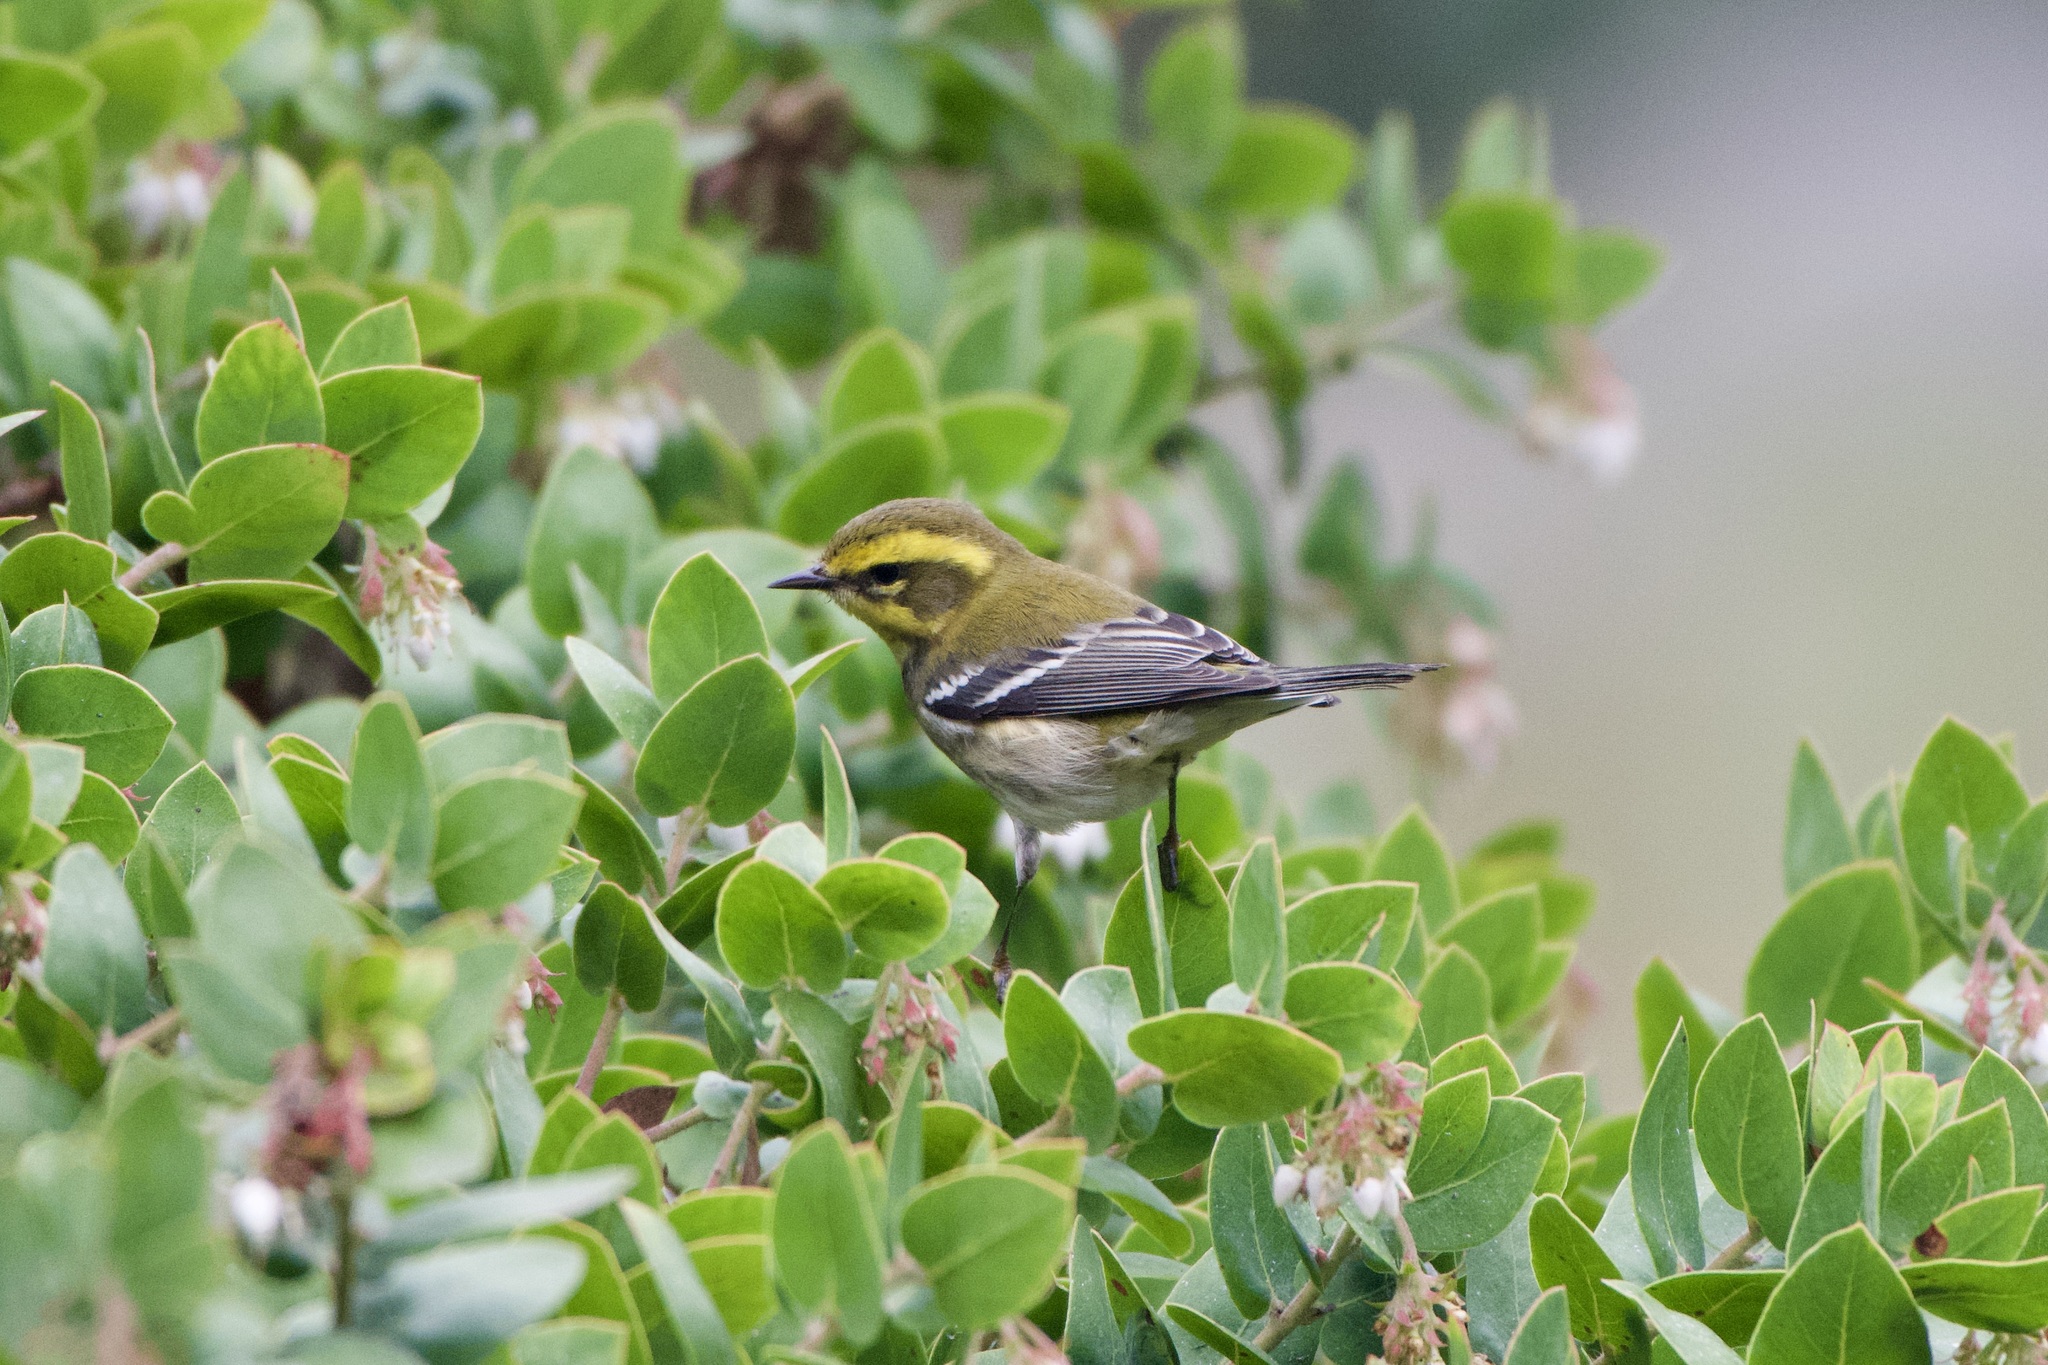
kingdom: Animalia
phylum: Chordata
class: Aves
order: Passeriformes
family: Parulidae
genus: Setophaga
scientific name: Setophaga townsendi
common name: Townsend's warbler
